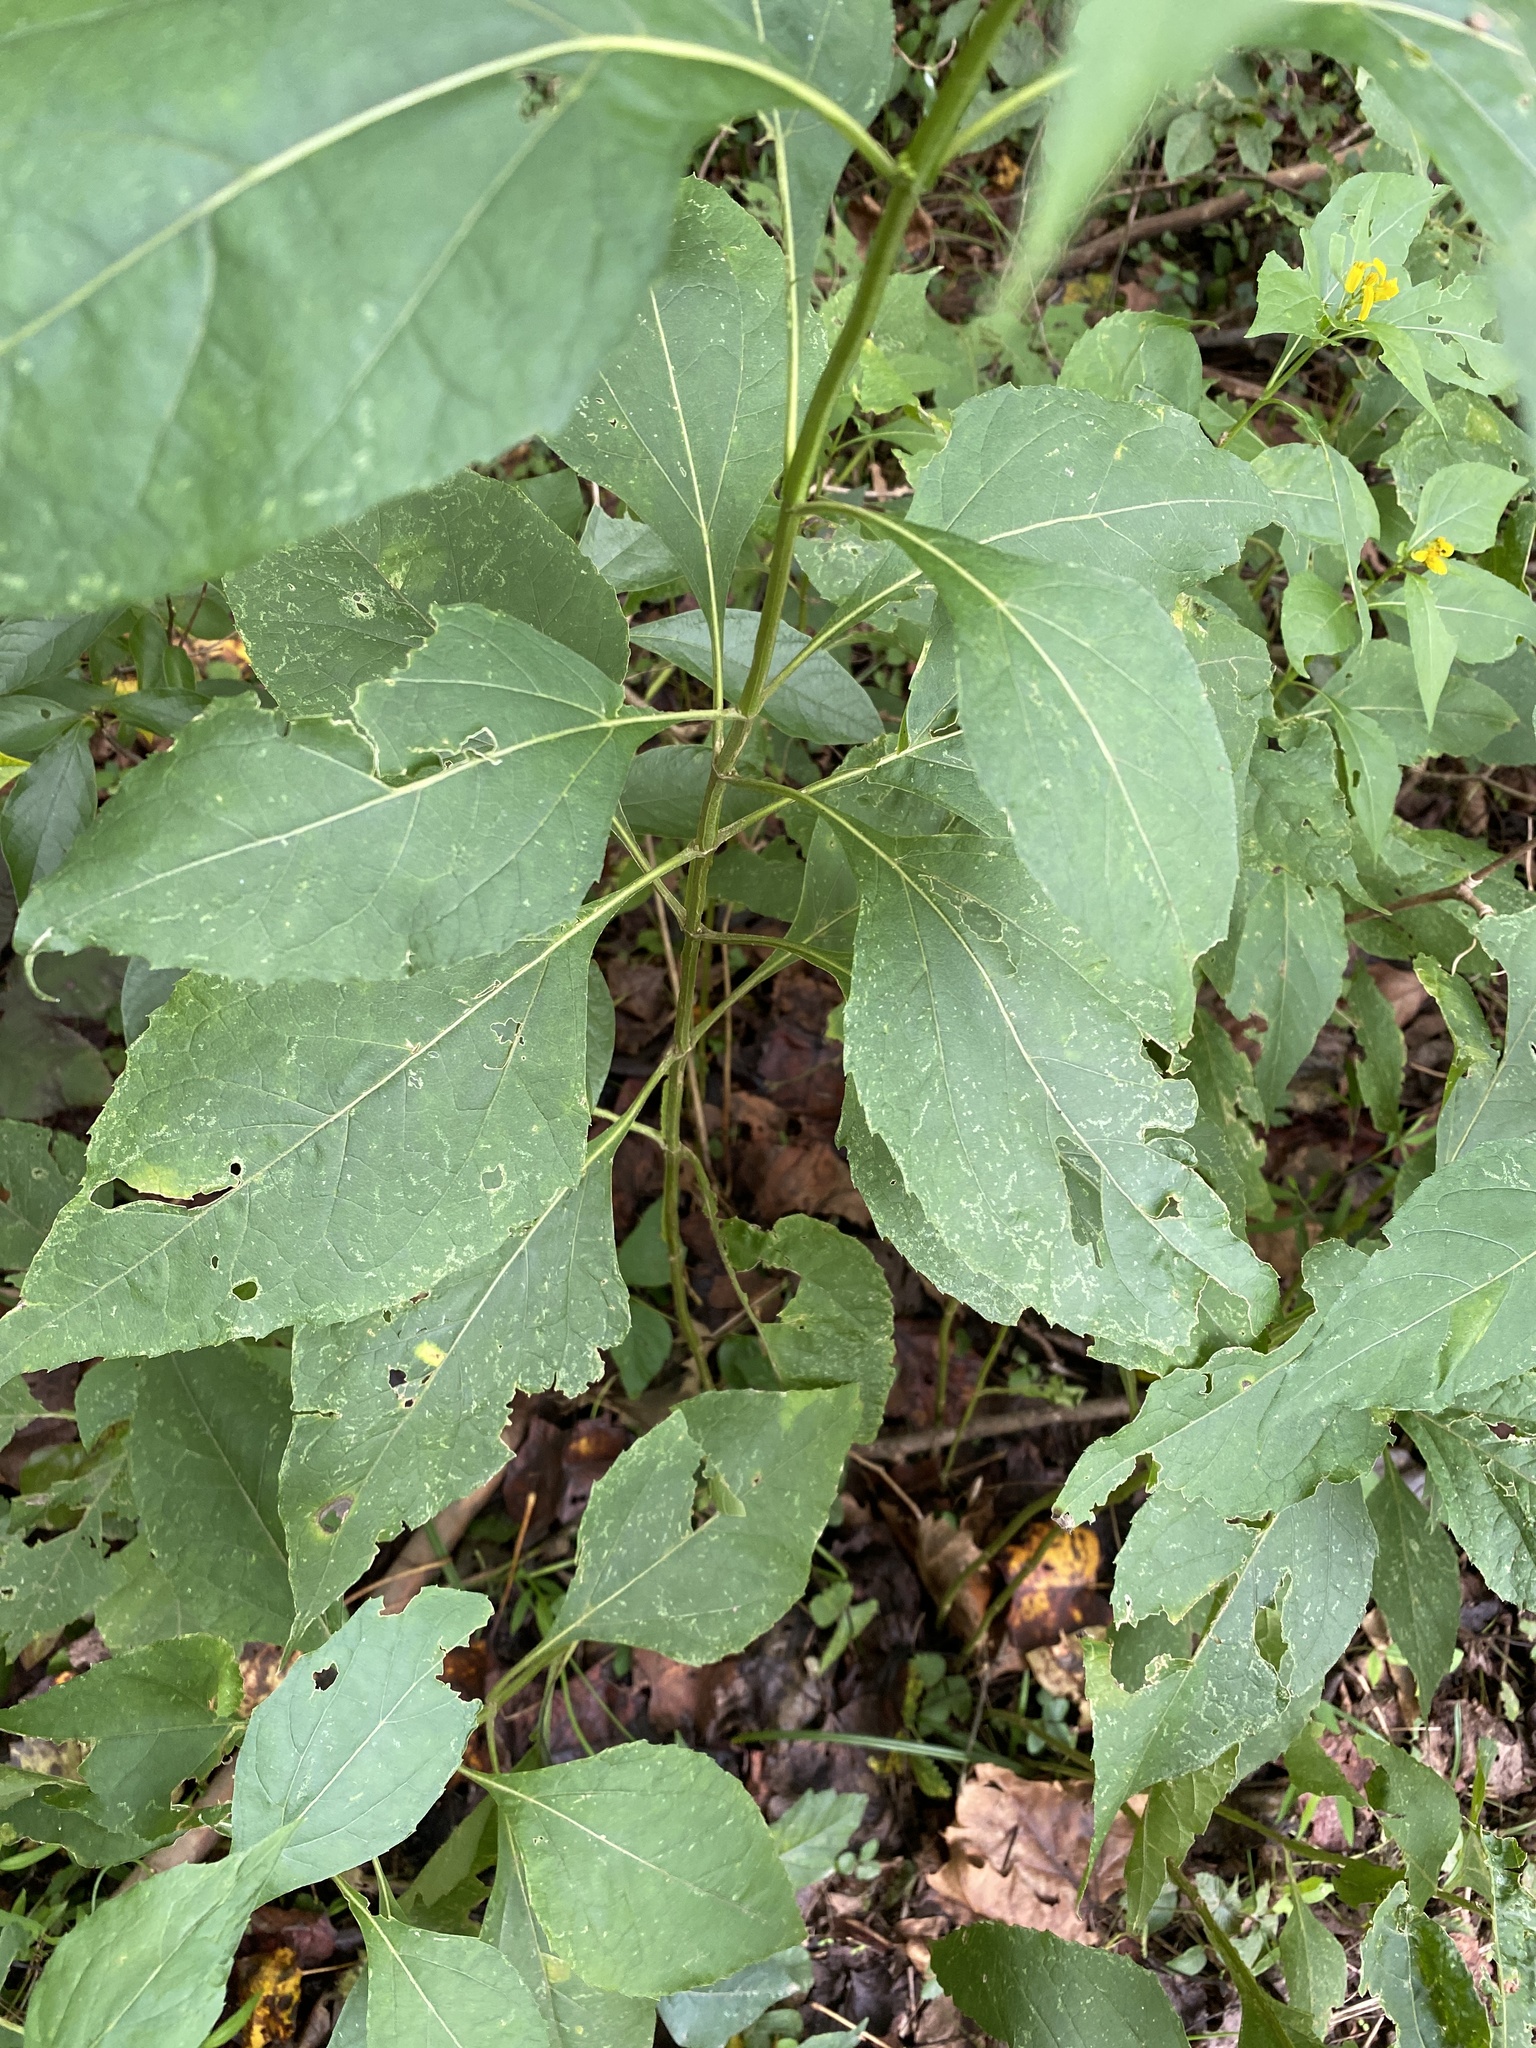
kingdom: Plantae
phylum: Tracheophyta
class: Magnoliopsida
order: Asterales
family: Asteraceae
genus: Verbesina
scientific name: Verbesina occidentalis
